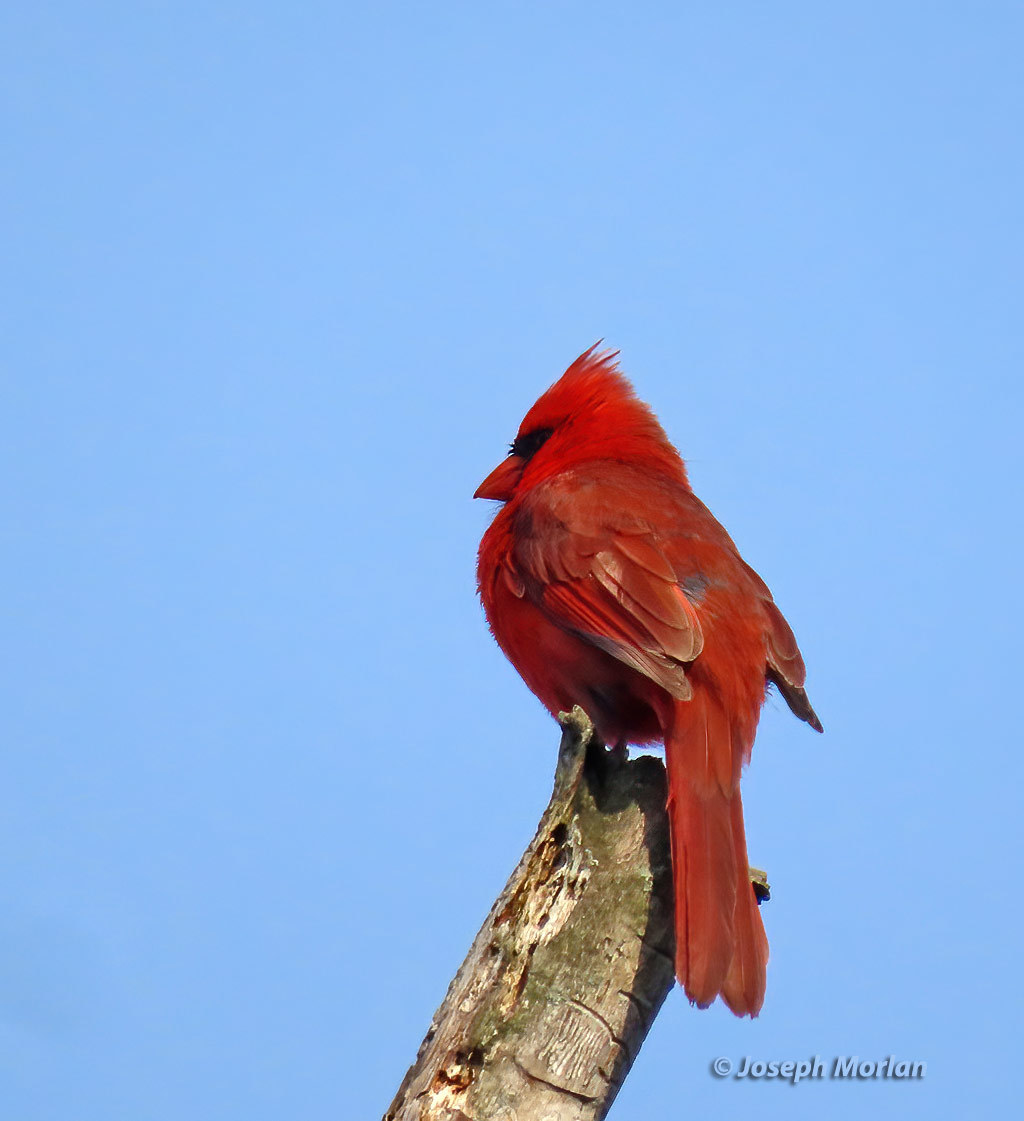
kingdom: Animalia
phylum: Chordata
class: Aves
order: Passeriformes
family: Cardinalidae
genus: Cardinalis
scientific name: Cardinalis cardinalis
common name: Northern cardinal
